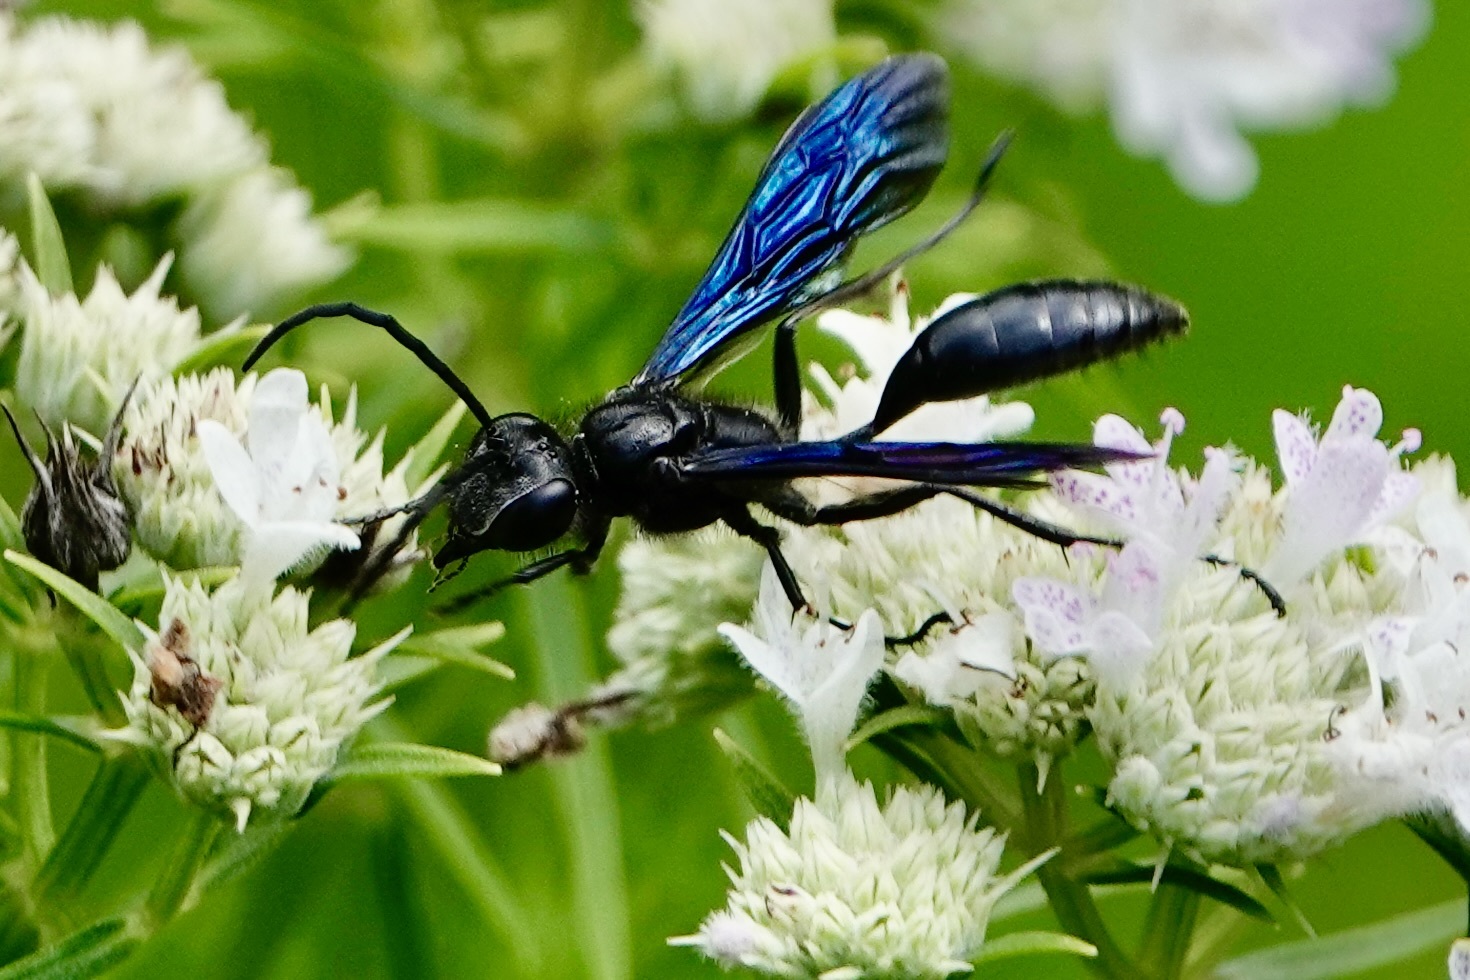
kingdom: Animalia
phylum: Arthropoda
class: Insecta
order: Hymenoptera
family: Sphecidae
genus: Isodontia
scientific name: Isodontia philadelphica
